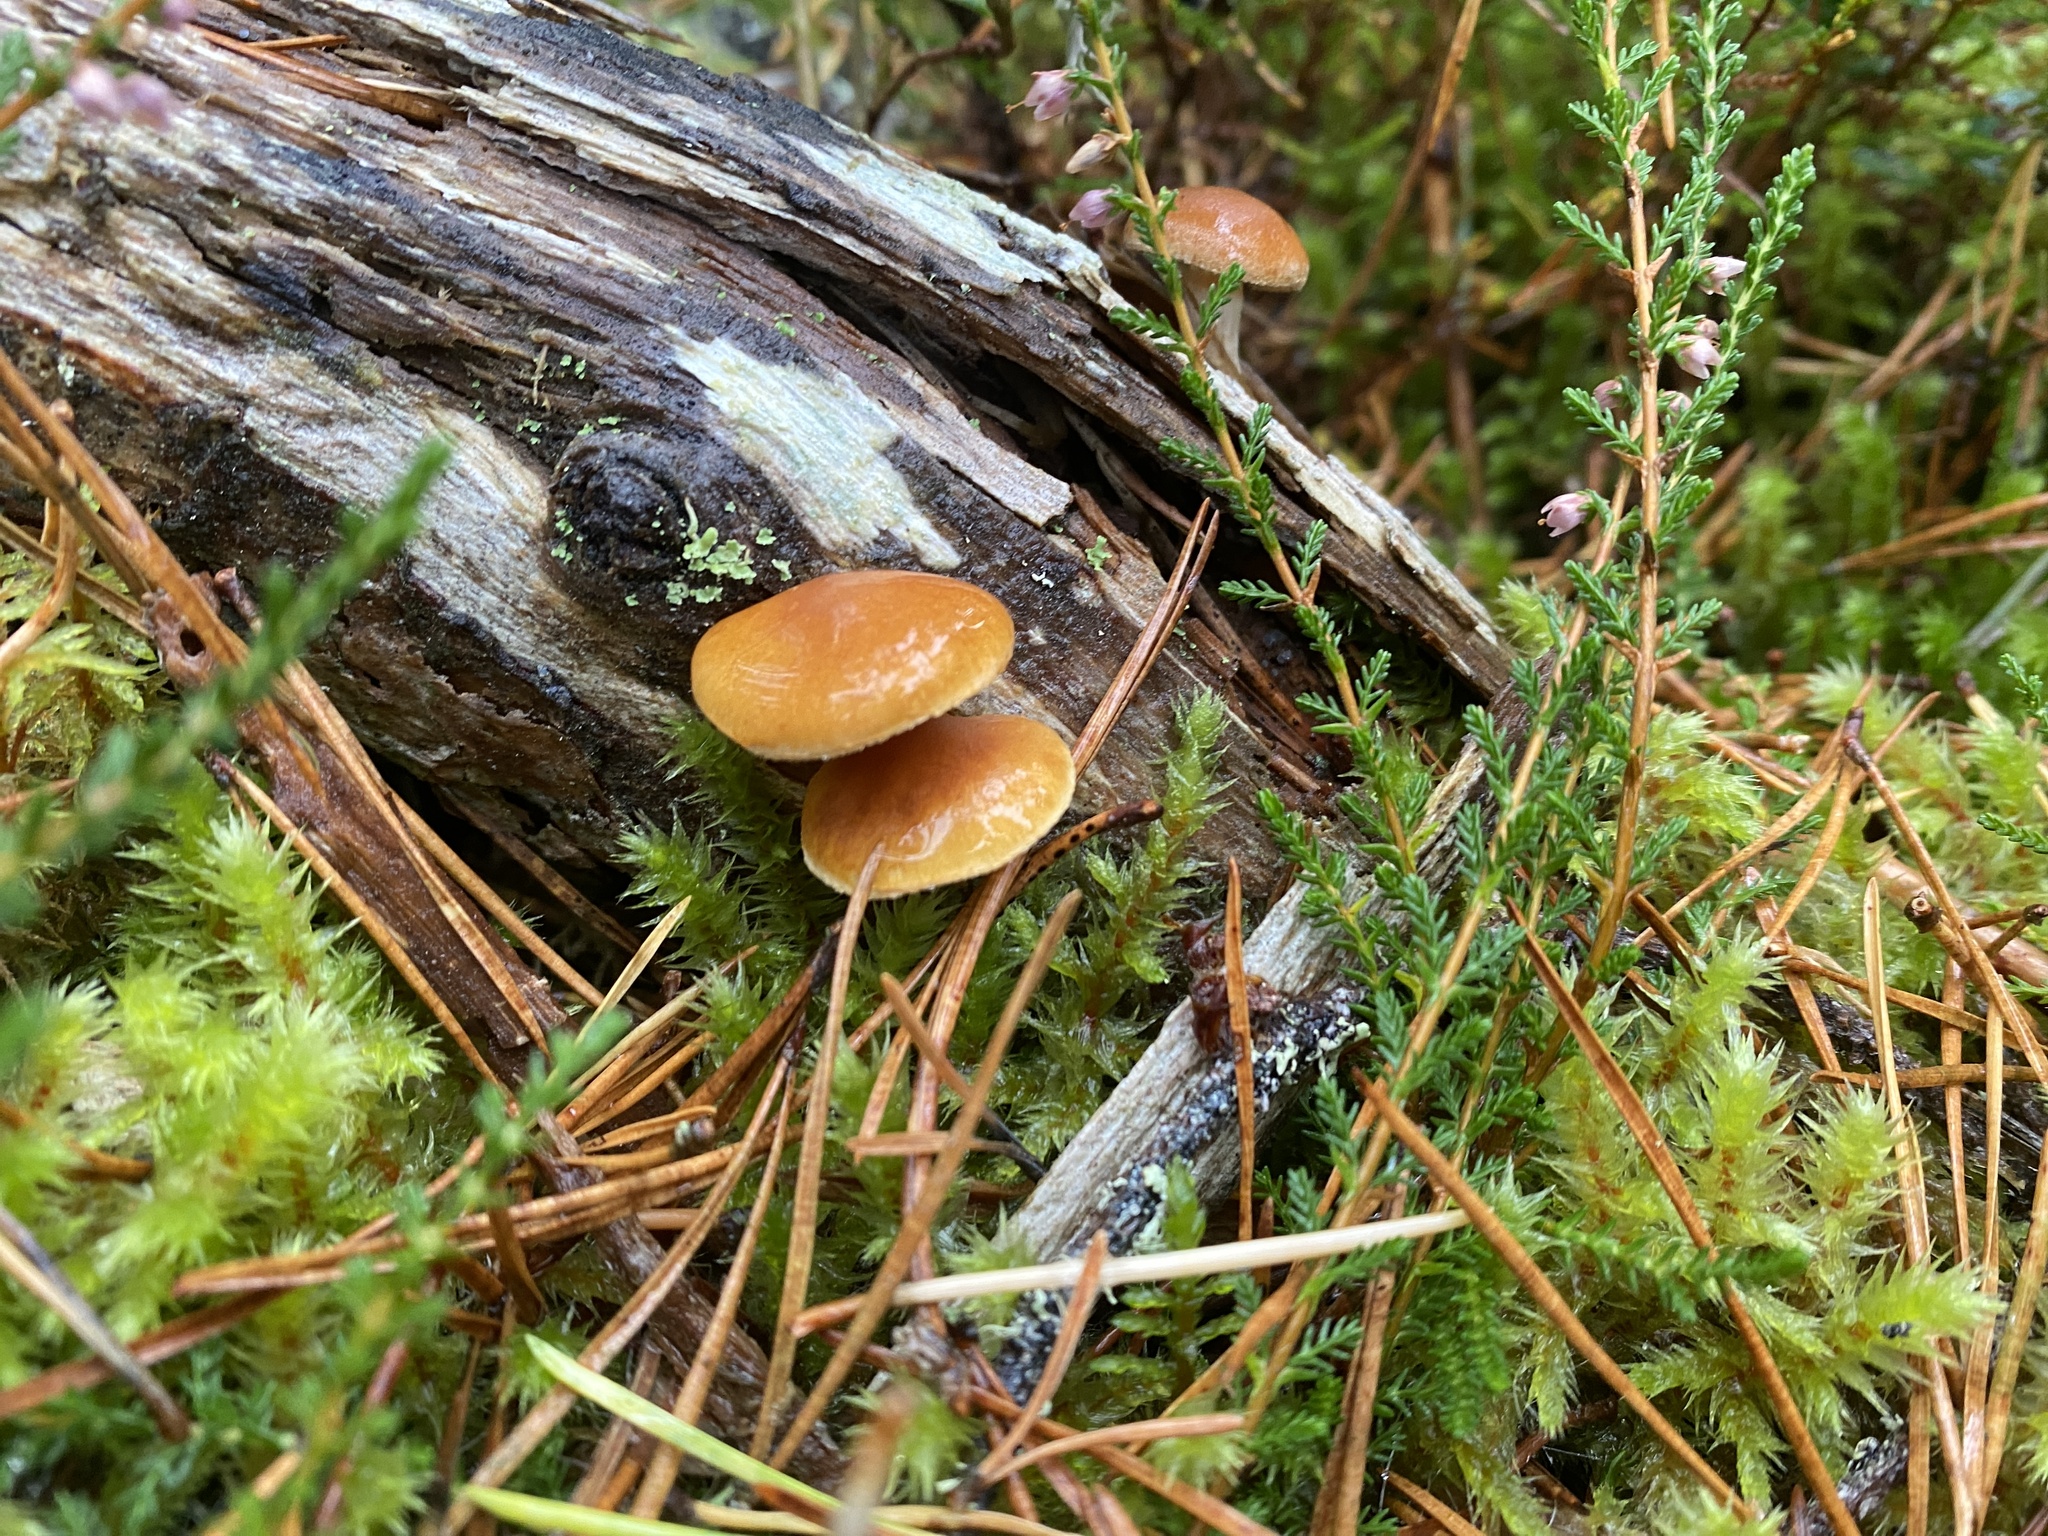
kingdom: Fungi
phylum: Basidiomycota
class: Agaricomycetes
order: Agaricales
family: Hymenogastraceae
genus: Gymnopilus
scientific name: Gymnopilus penetrans
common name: Common rustgill
